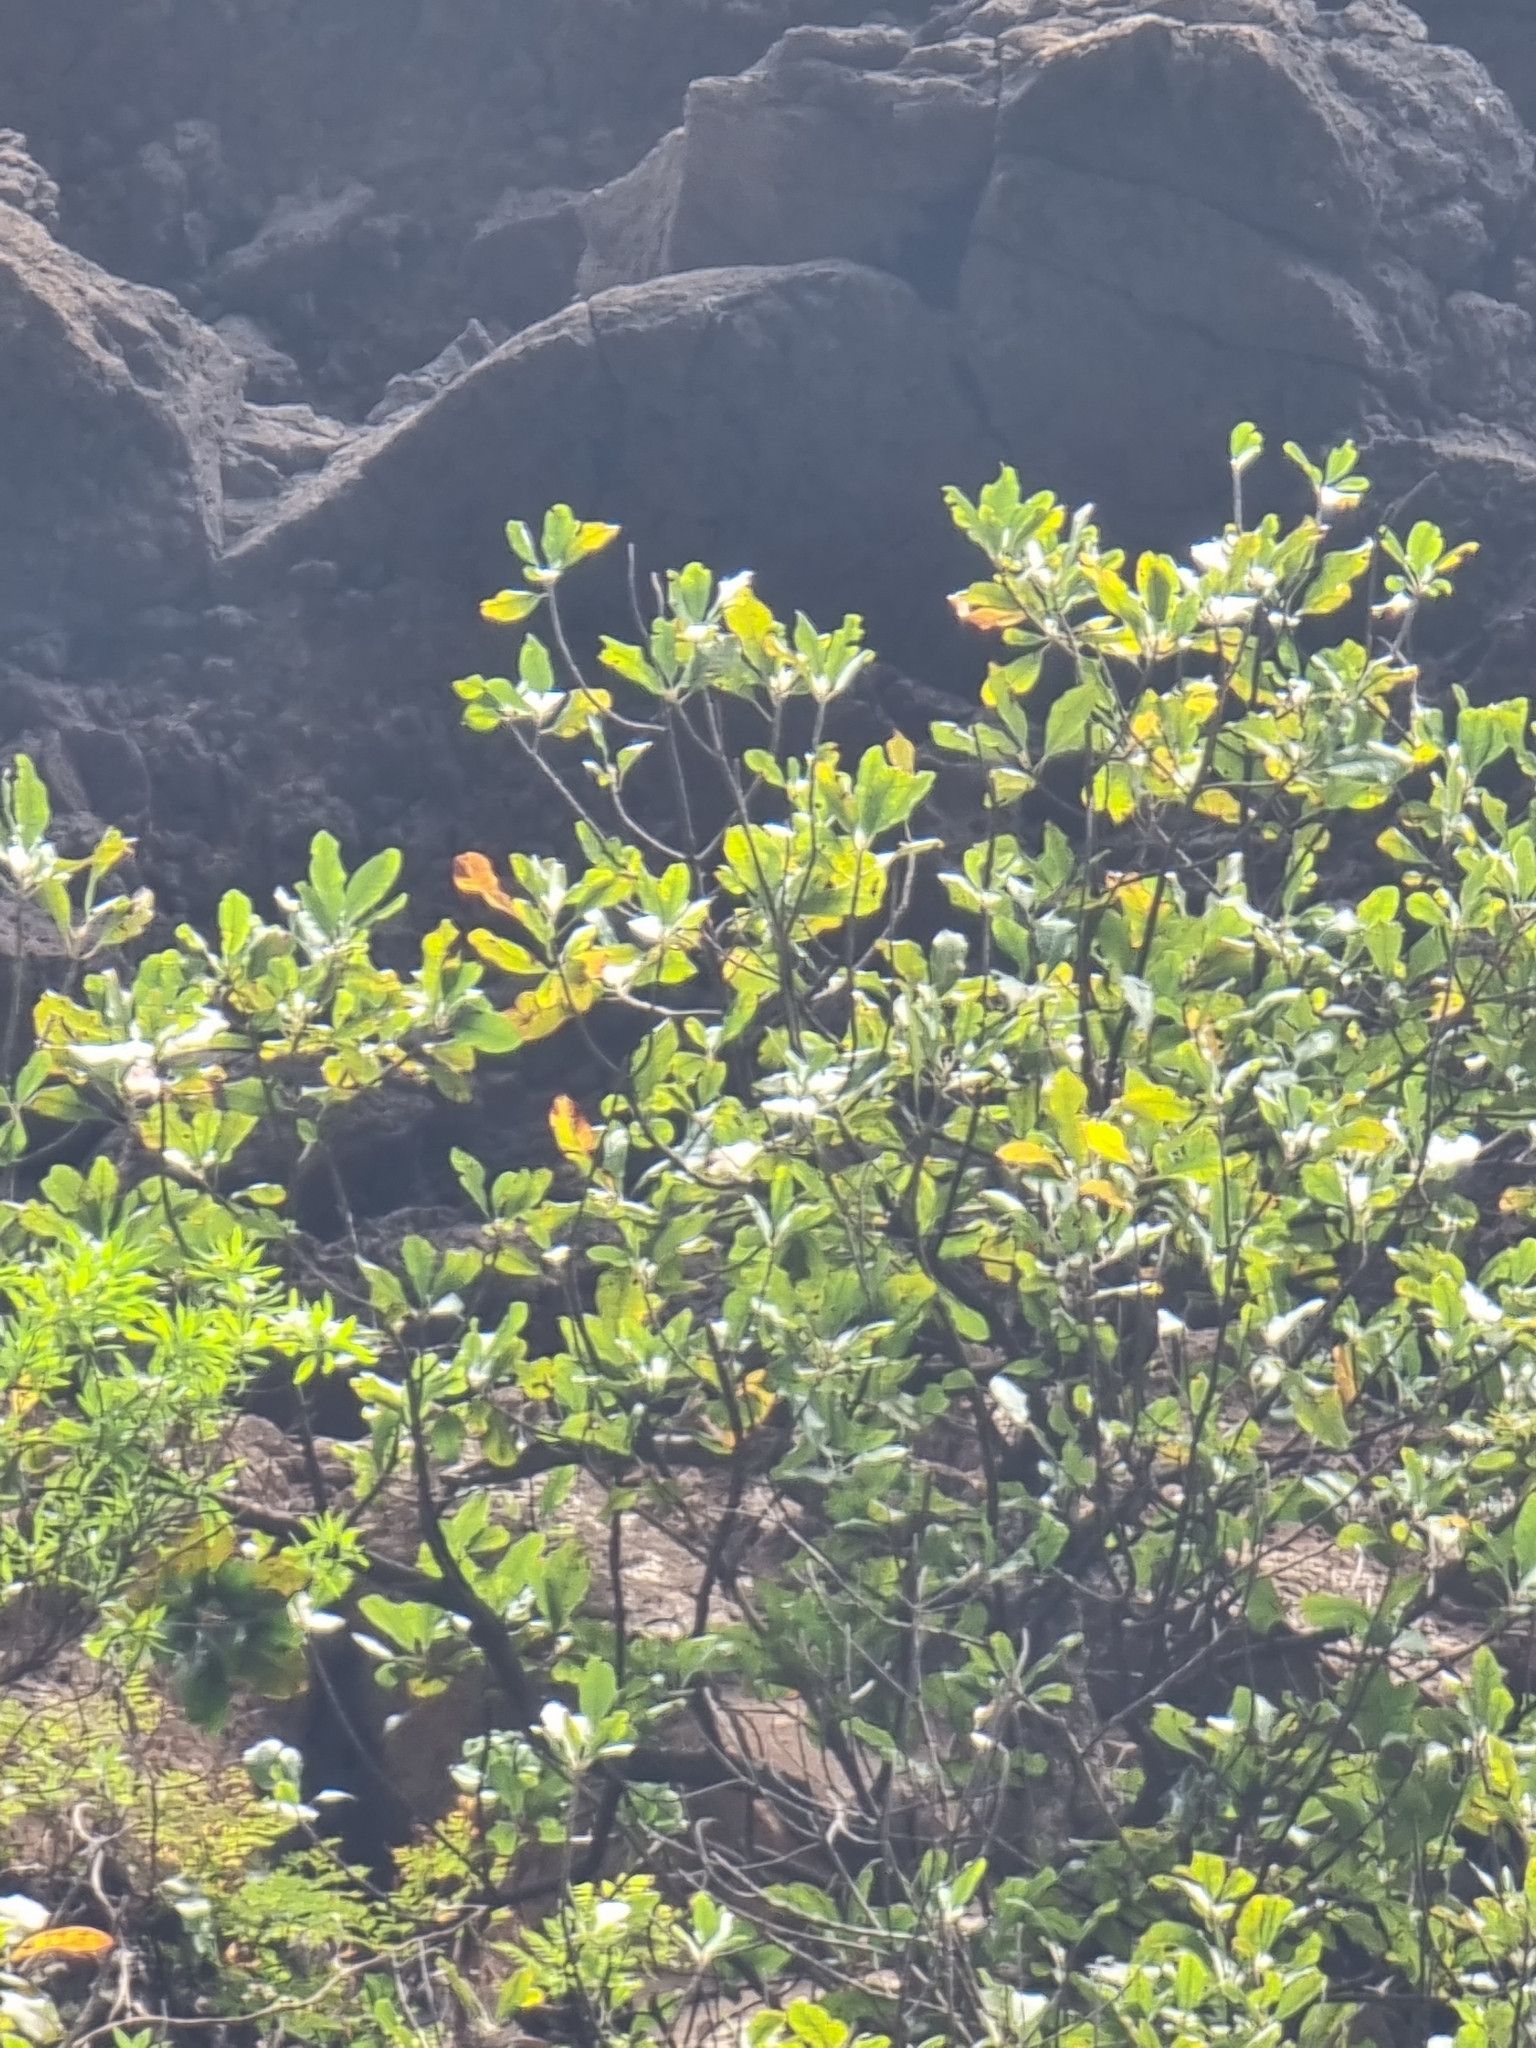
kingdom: Plantae
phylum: Tracheophyta
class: Magnoliopsida
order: Ericales
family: Sapotaceae
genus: Sideroxylon
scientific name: Sideroxylon mirmulans
